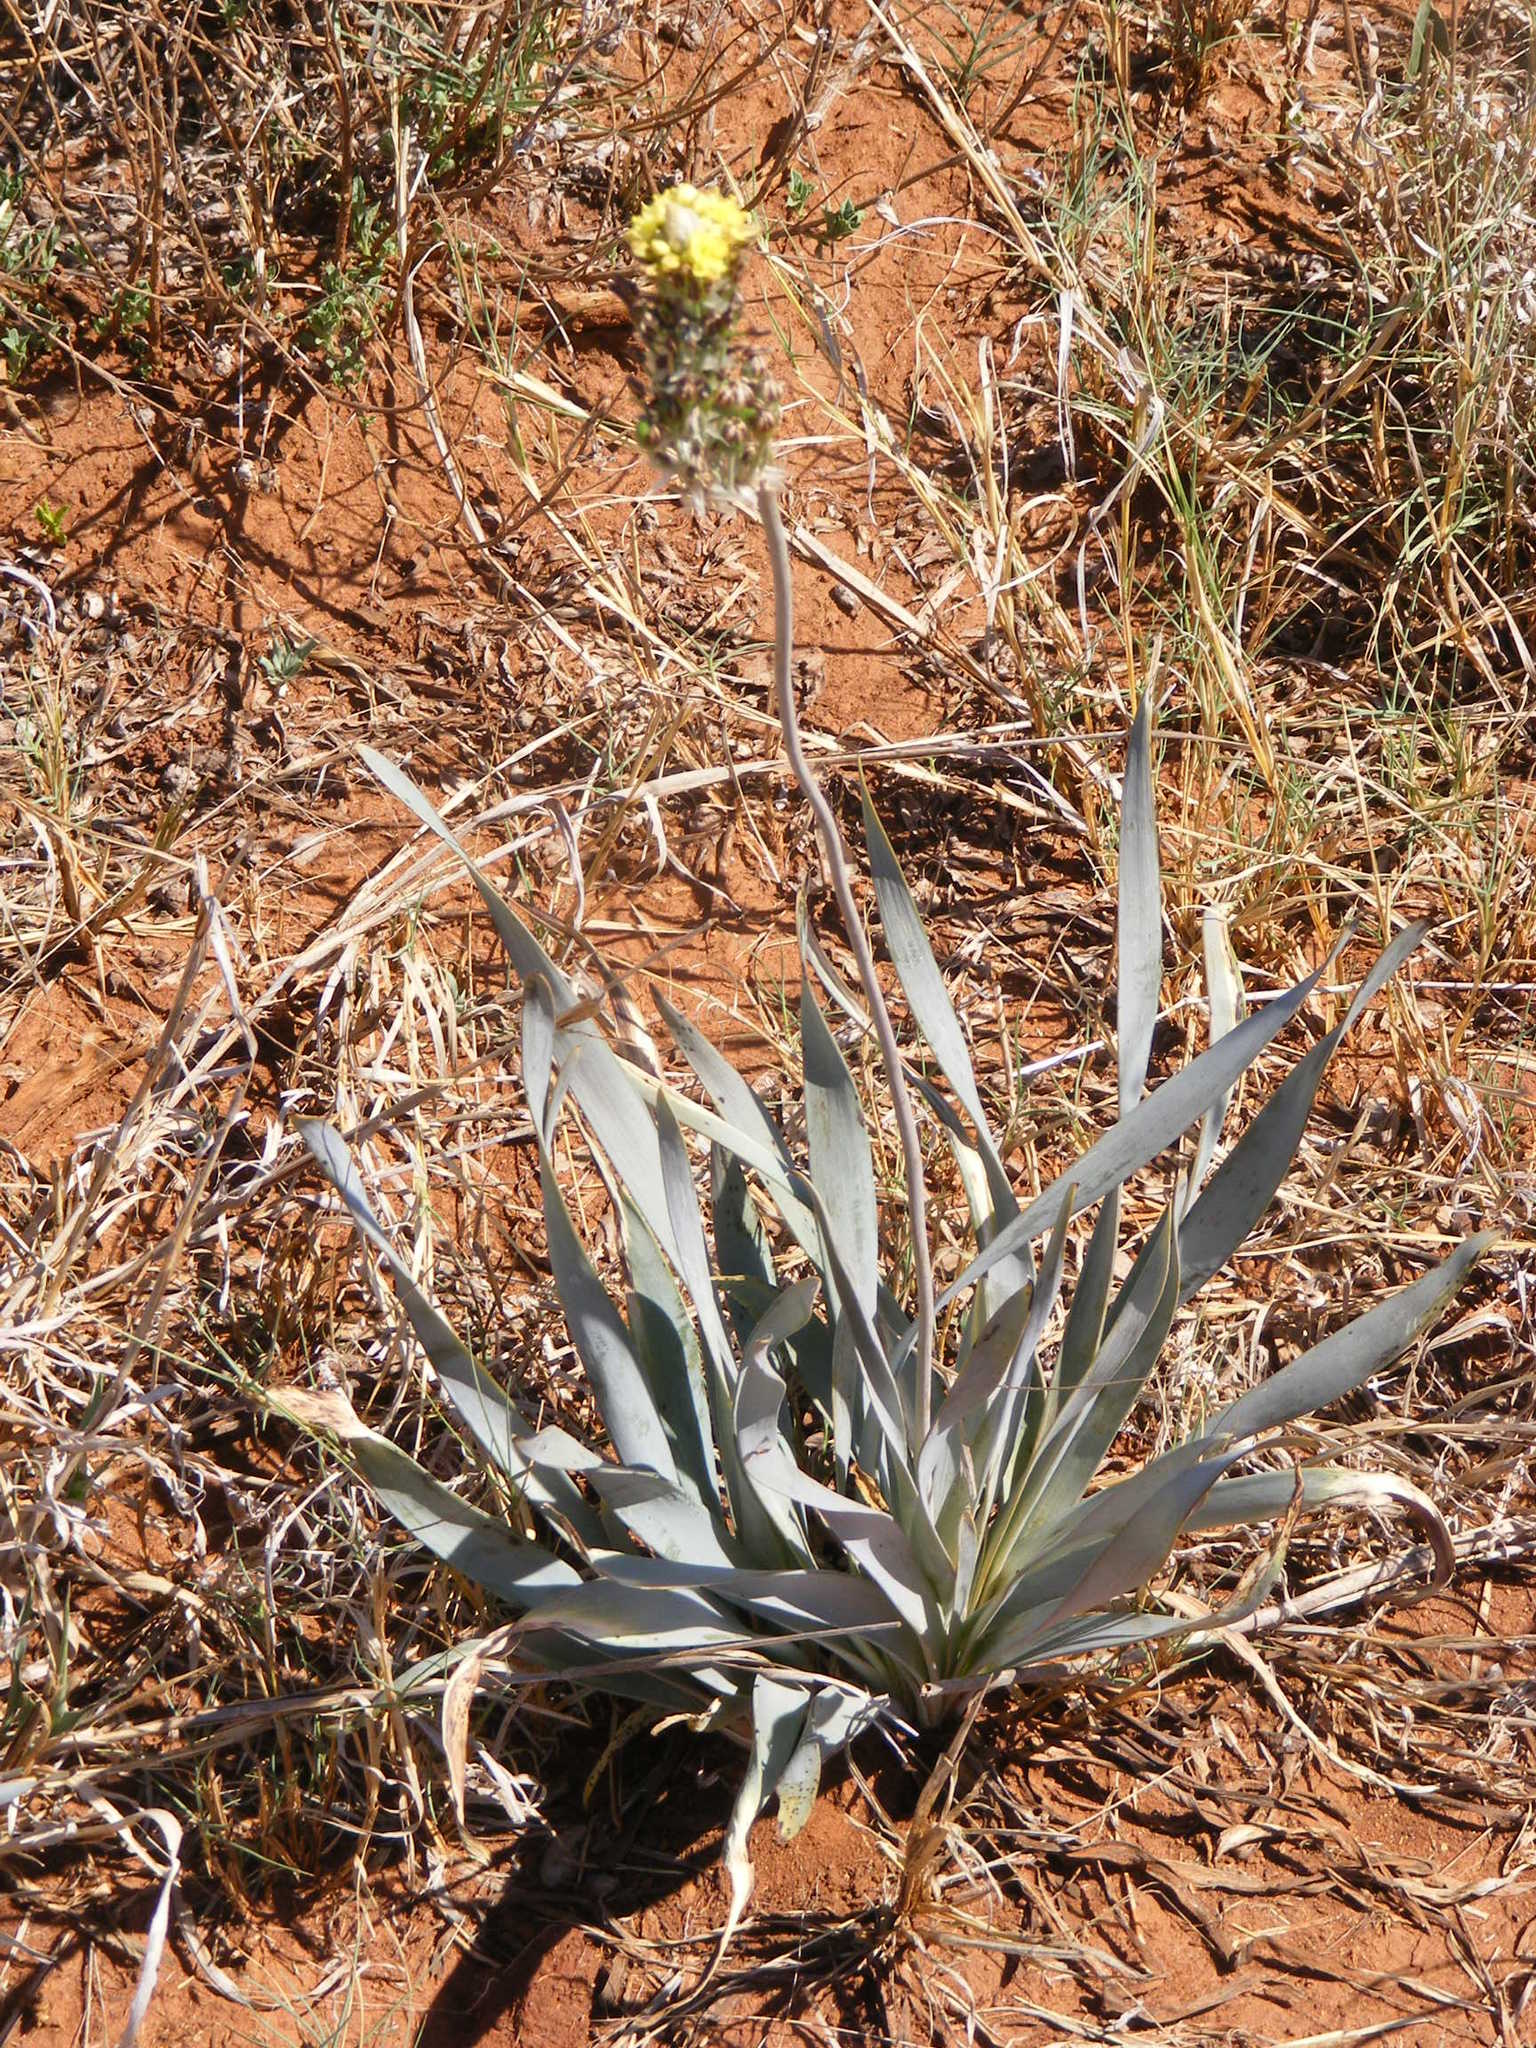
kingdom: Plantae
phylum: Tracheophyta
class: Liliopsida
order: Asparagales
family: Asphodelaceae
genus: Bulbine
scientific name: Bulbine narcissifolia
